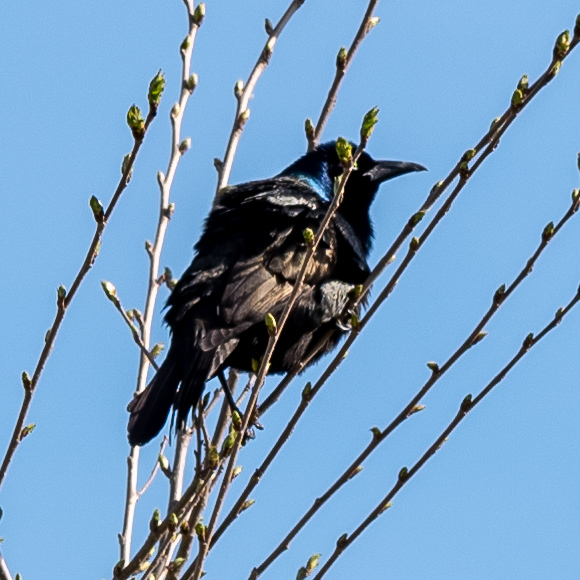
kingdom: Animalia
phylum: Chordata
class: Aves
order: Passeriformes
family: Icteridae
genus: Quiscalus
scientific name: Quiscalus quiscula
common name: Common grackle
